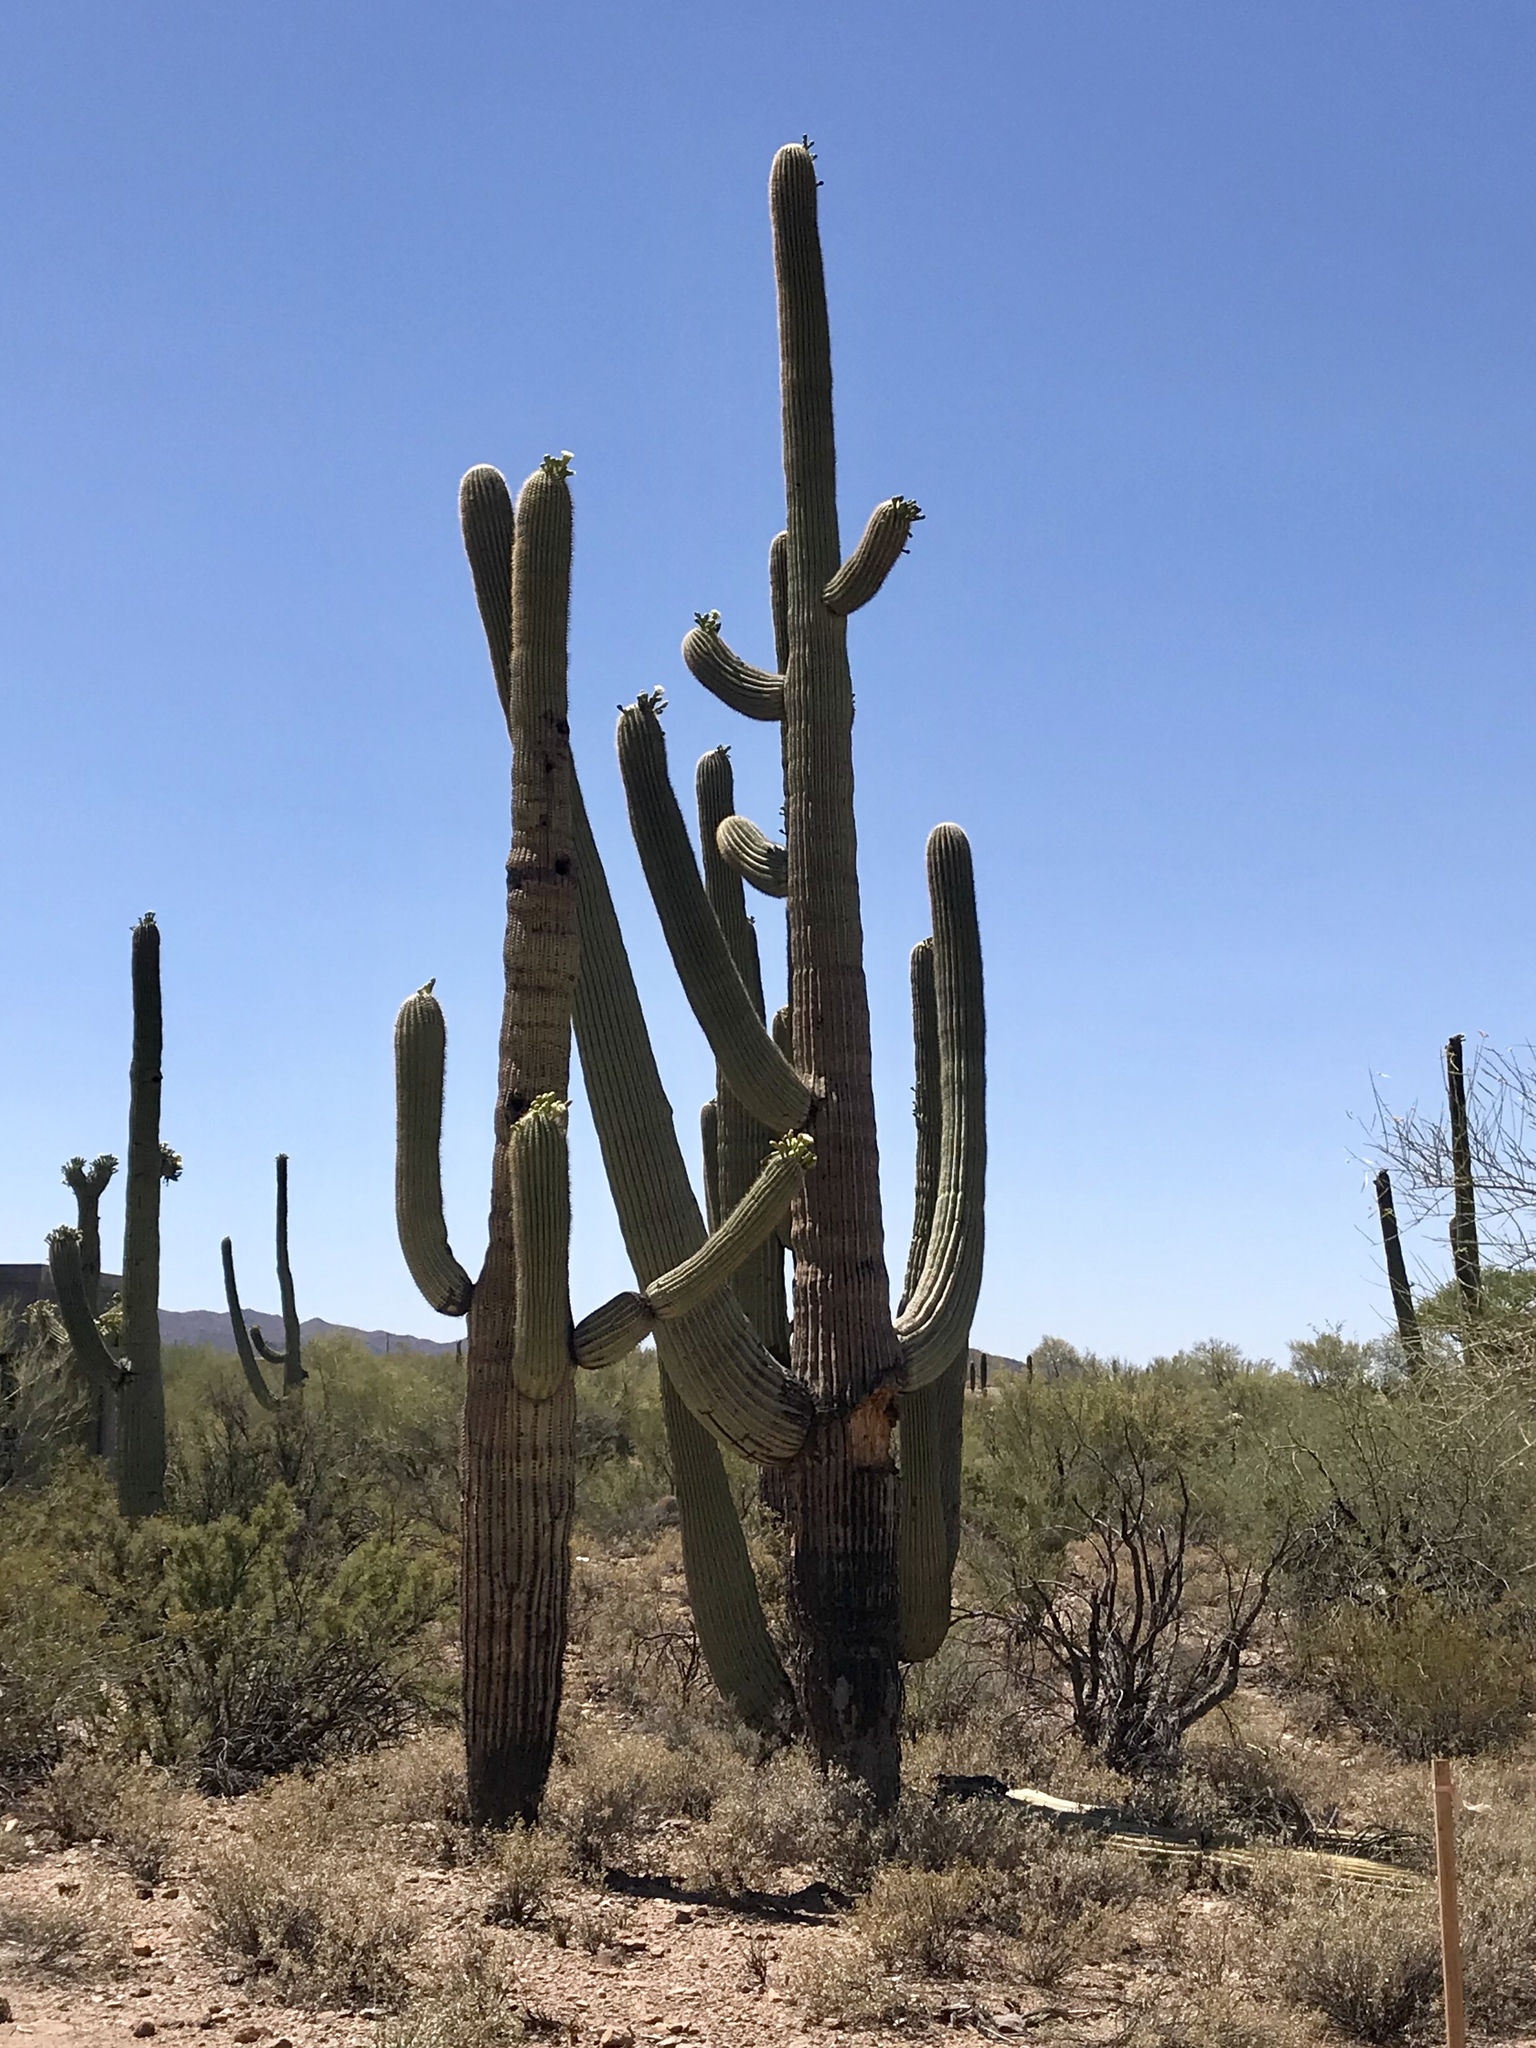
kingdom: Plantae
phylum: Tracheophyta
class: Magnoliopsida
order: Caryophyllales
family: Cactaceae
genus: Carnegiea
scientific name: Carnegiea gigantea
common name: Saguaro
